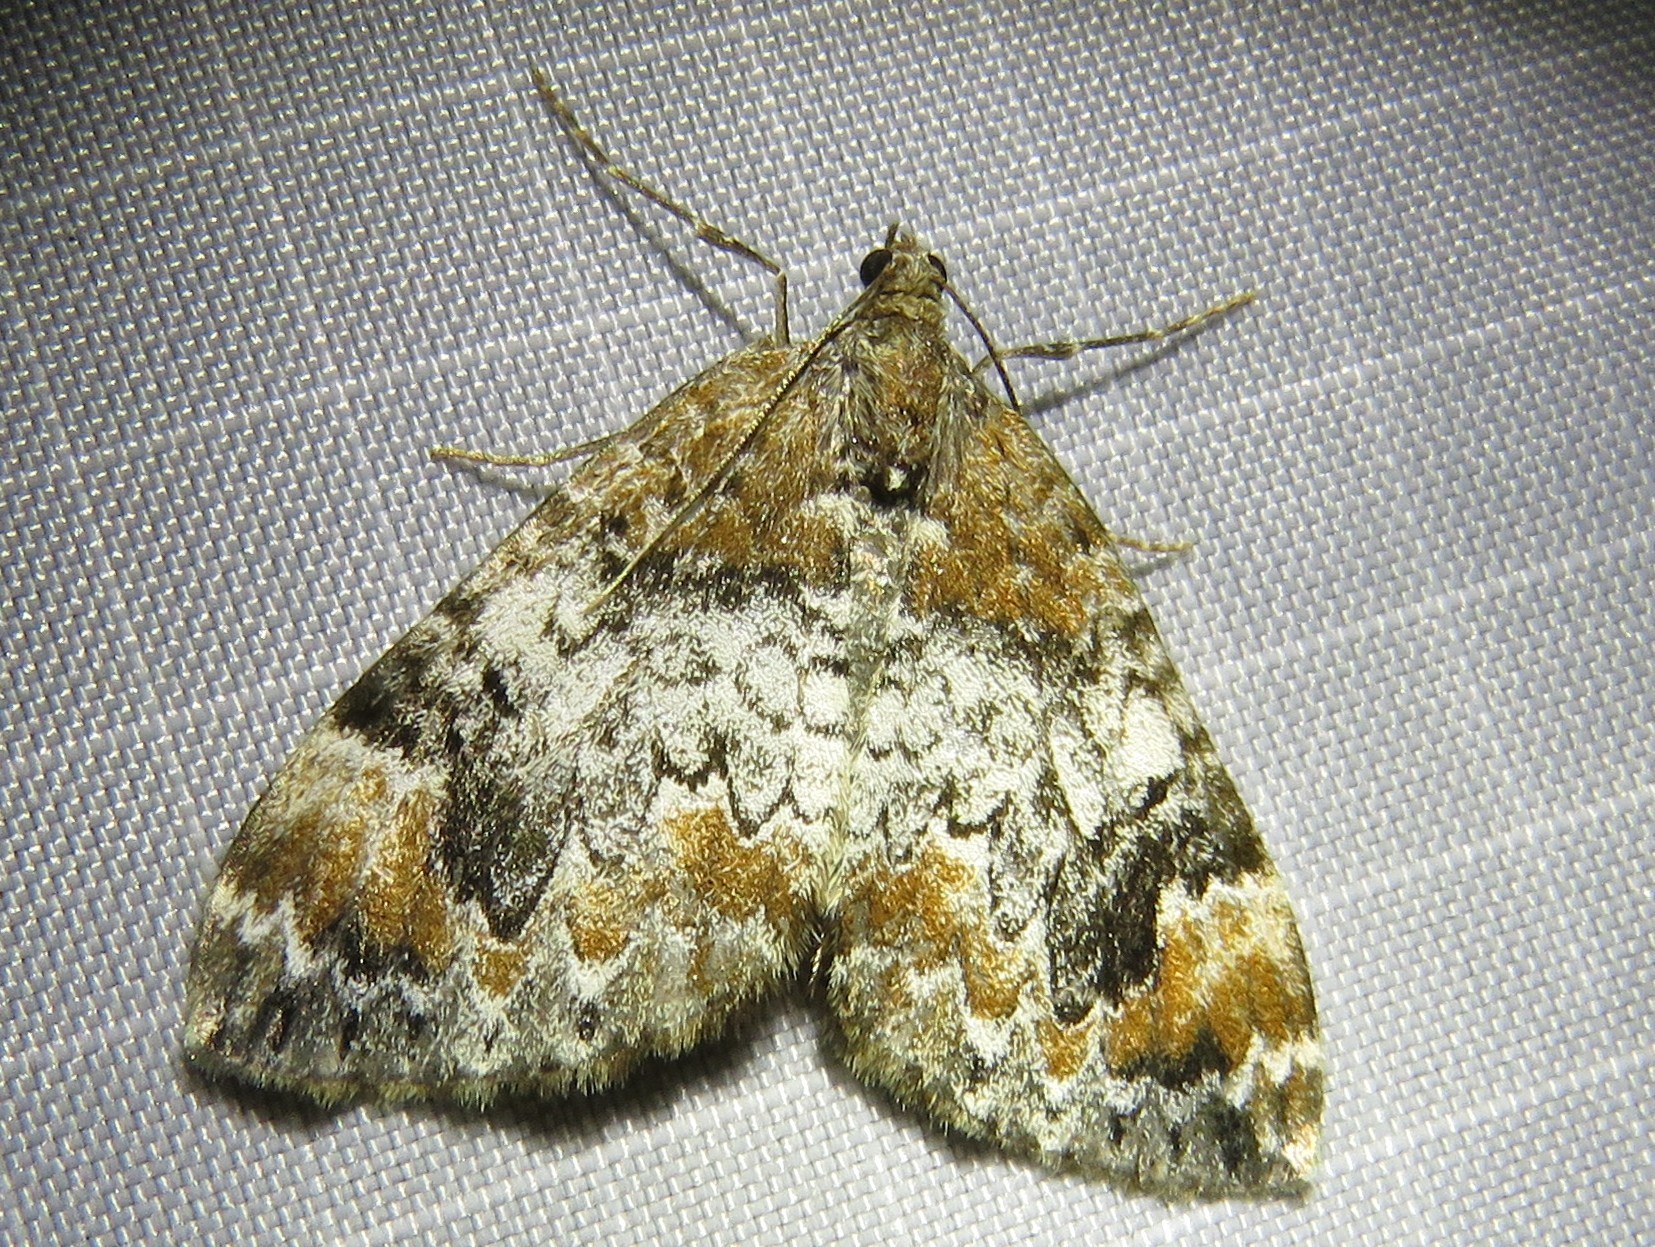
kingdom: Animalia
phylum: Arthropoda
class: Insecta
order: Lepidoptera
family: Geometridae
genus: Dysstroma
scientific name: Dysstroma citrata
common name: Dark marbled carpet
